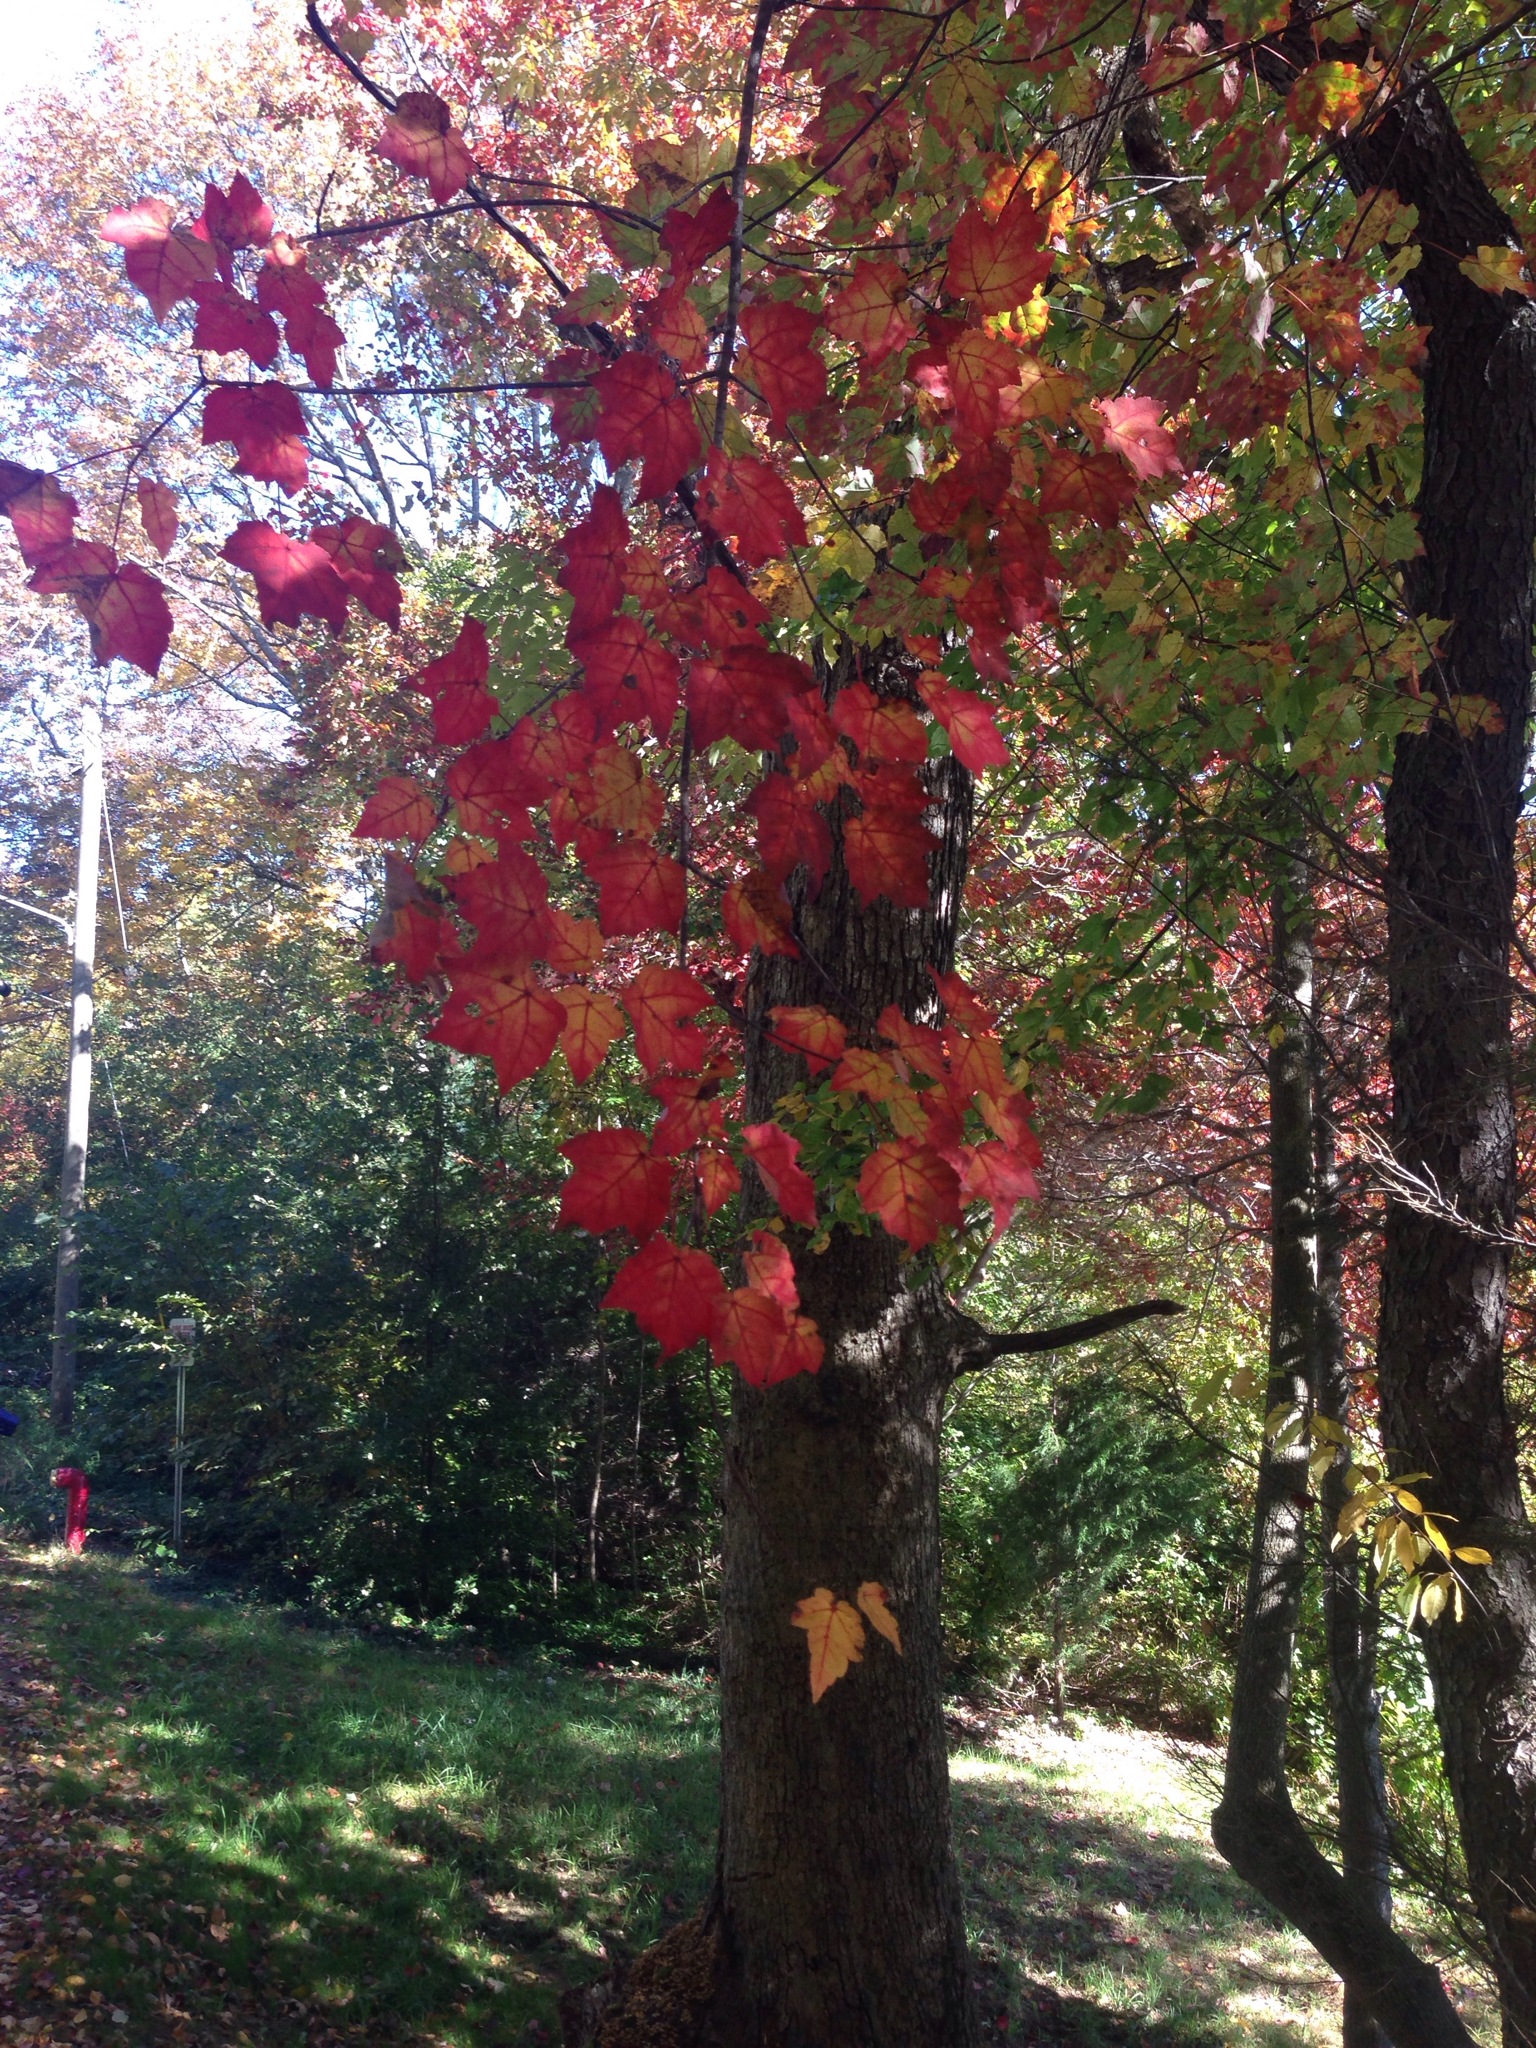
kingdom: Plantae
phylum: Tracheophyta
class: Magnoliopsida
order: Sapindales
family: Sapindaceae
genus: Acer
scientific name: Acer rubrum
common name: Red maple
